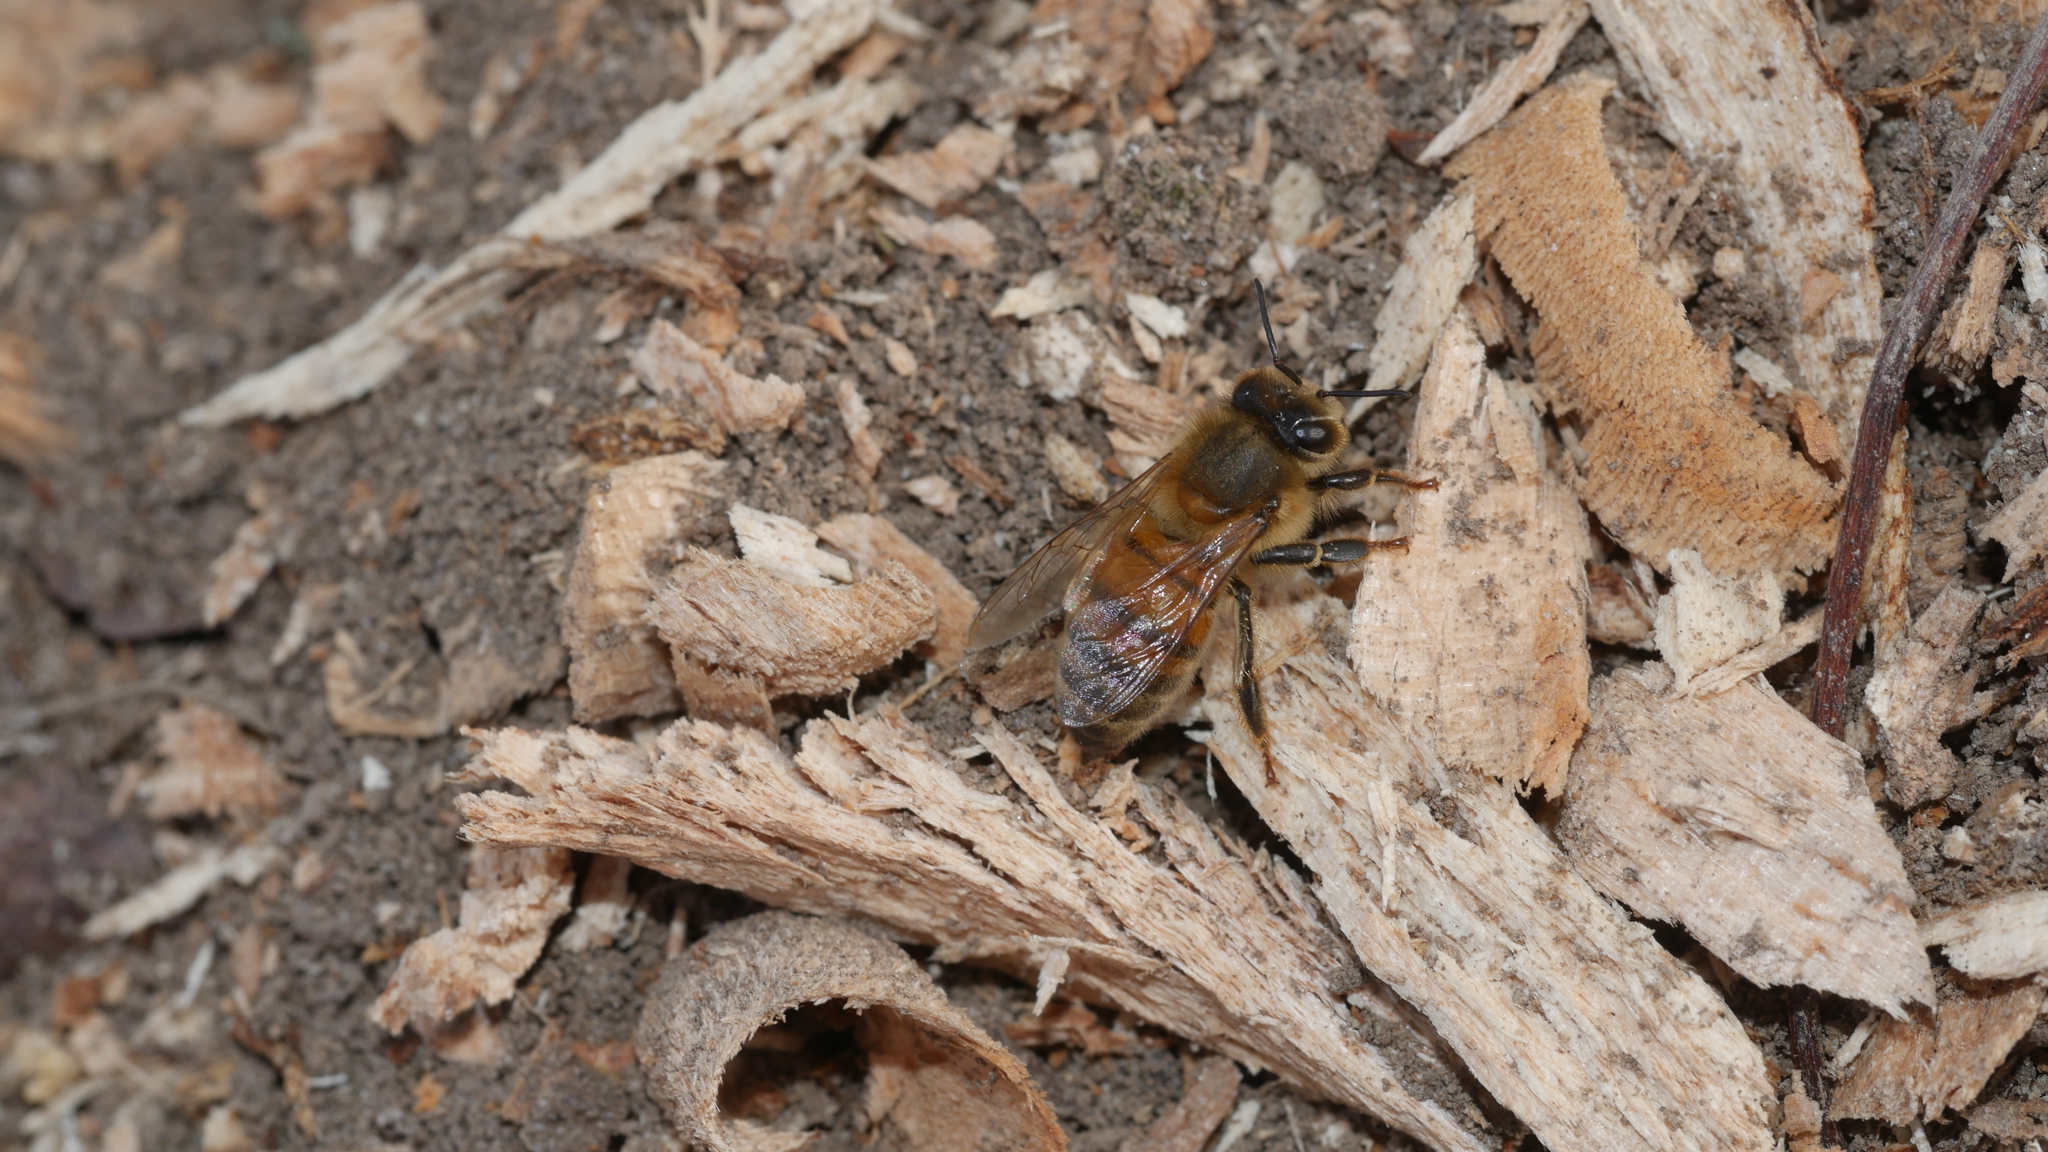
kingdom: Animalia
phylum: Arthropoda
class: Insecta
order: Hymenoptera
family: Apidae
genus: Apis
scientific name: Apis mellifera
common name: Honey bee
